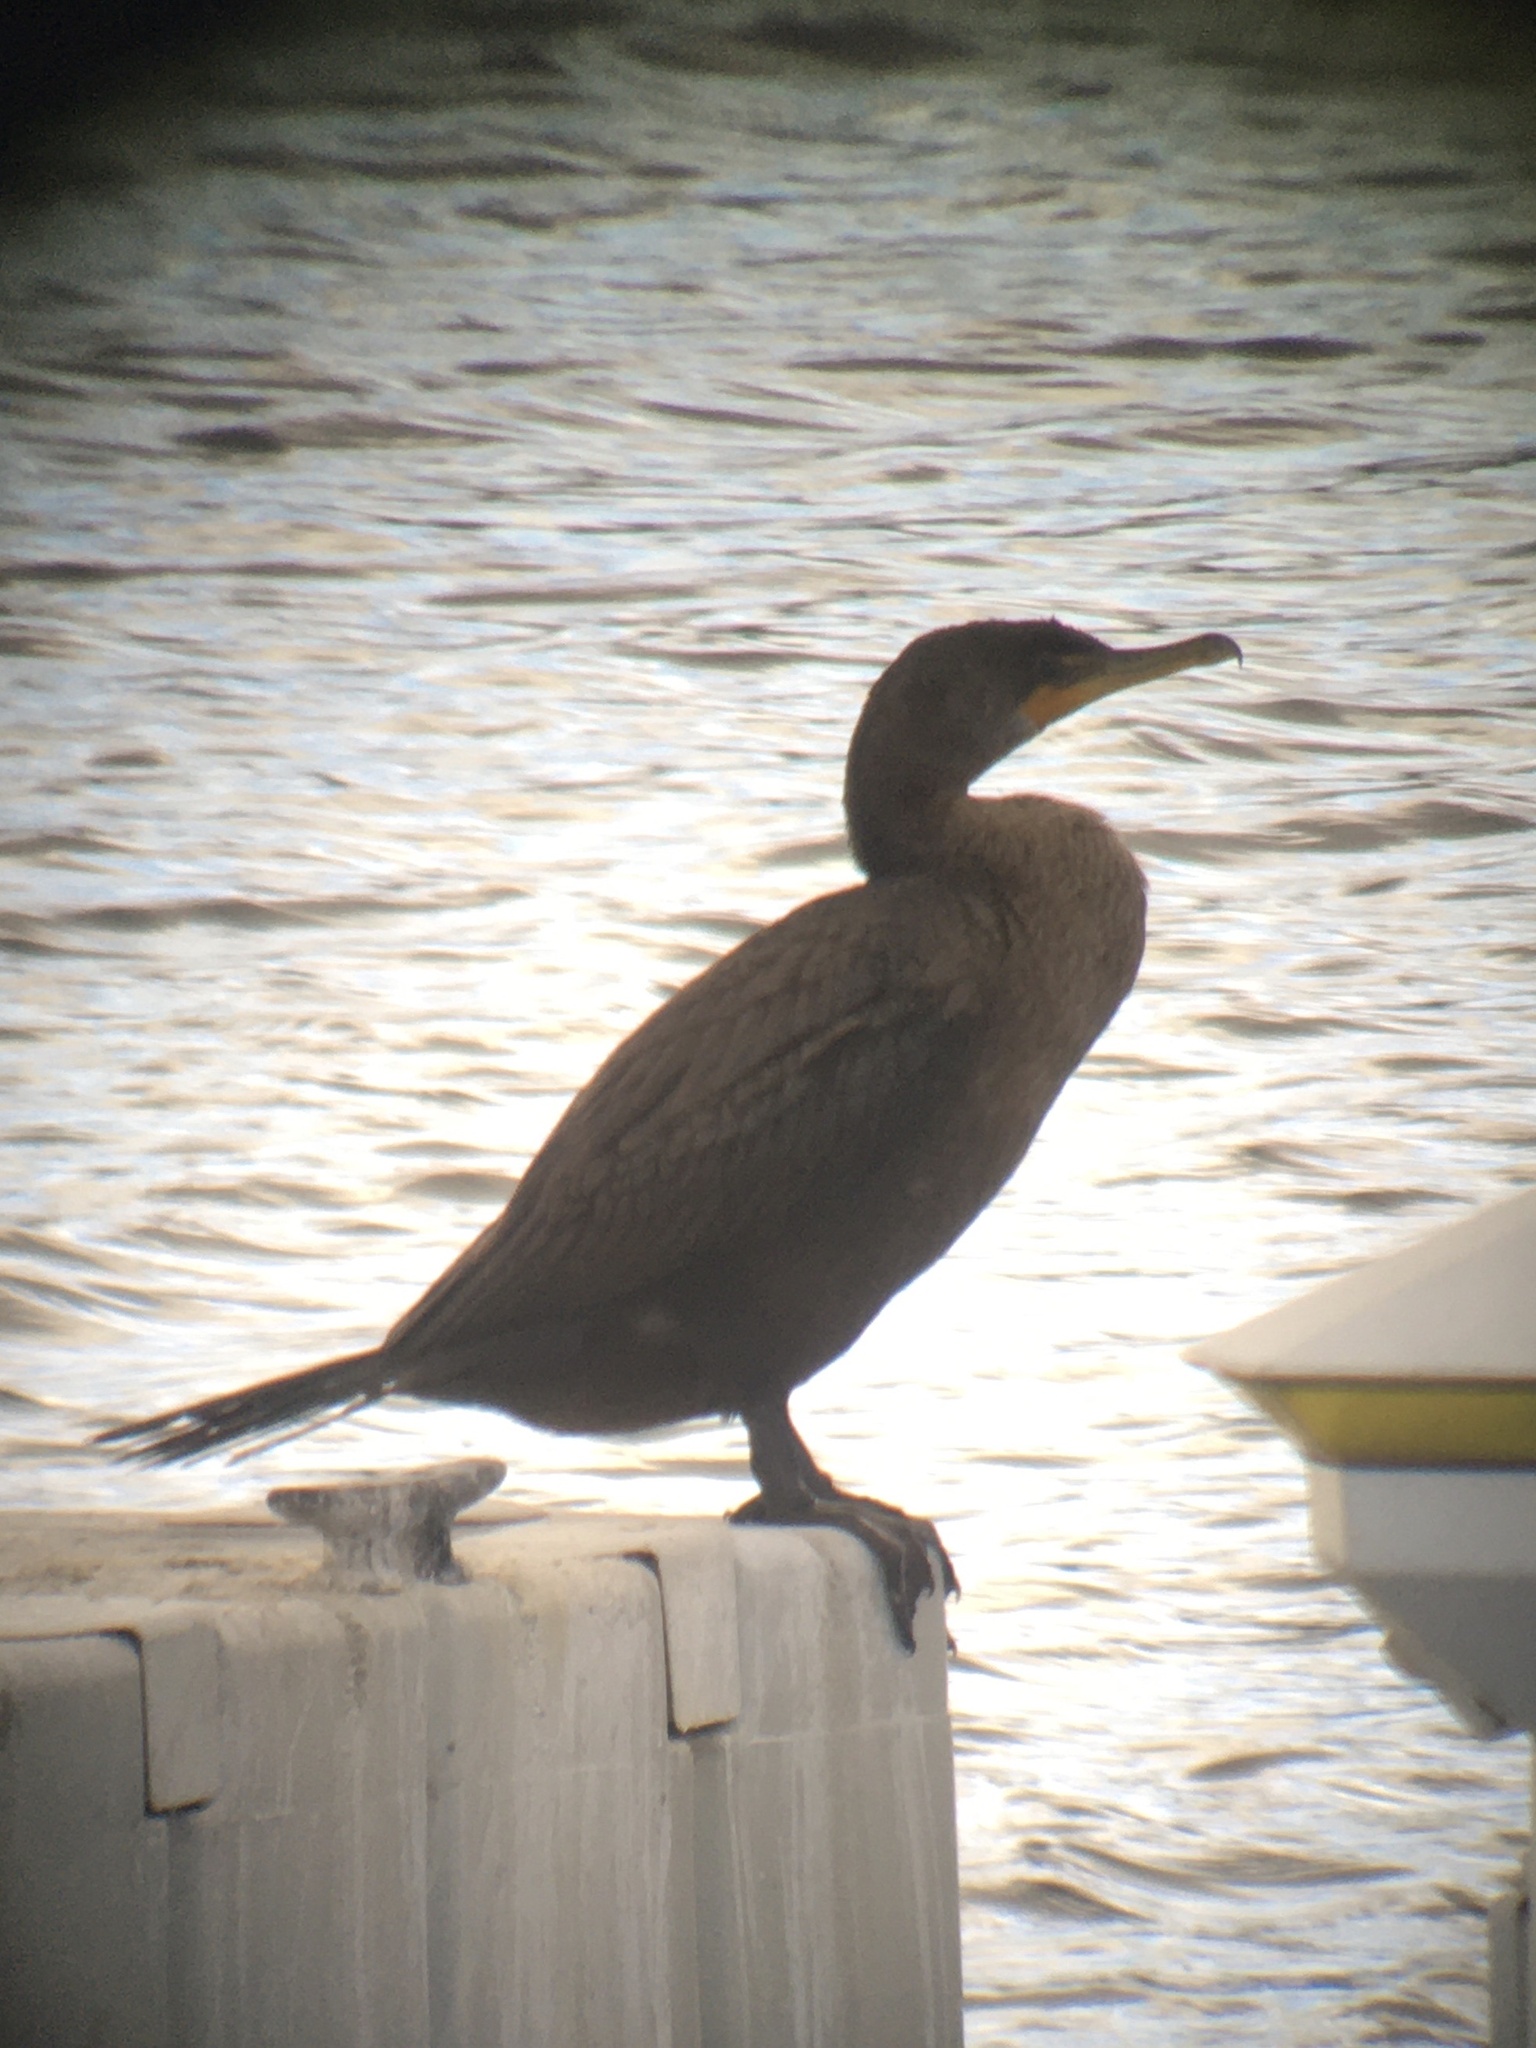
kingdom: Animalia
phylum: Chordata
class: Aves
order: Suliformes
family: Phalacrocoracidae
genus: Phalacrocorax
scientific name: Phalacrocorax auritus
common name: Double-crested cormorant
